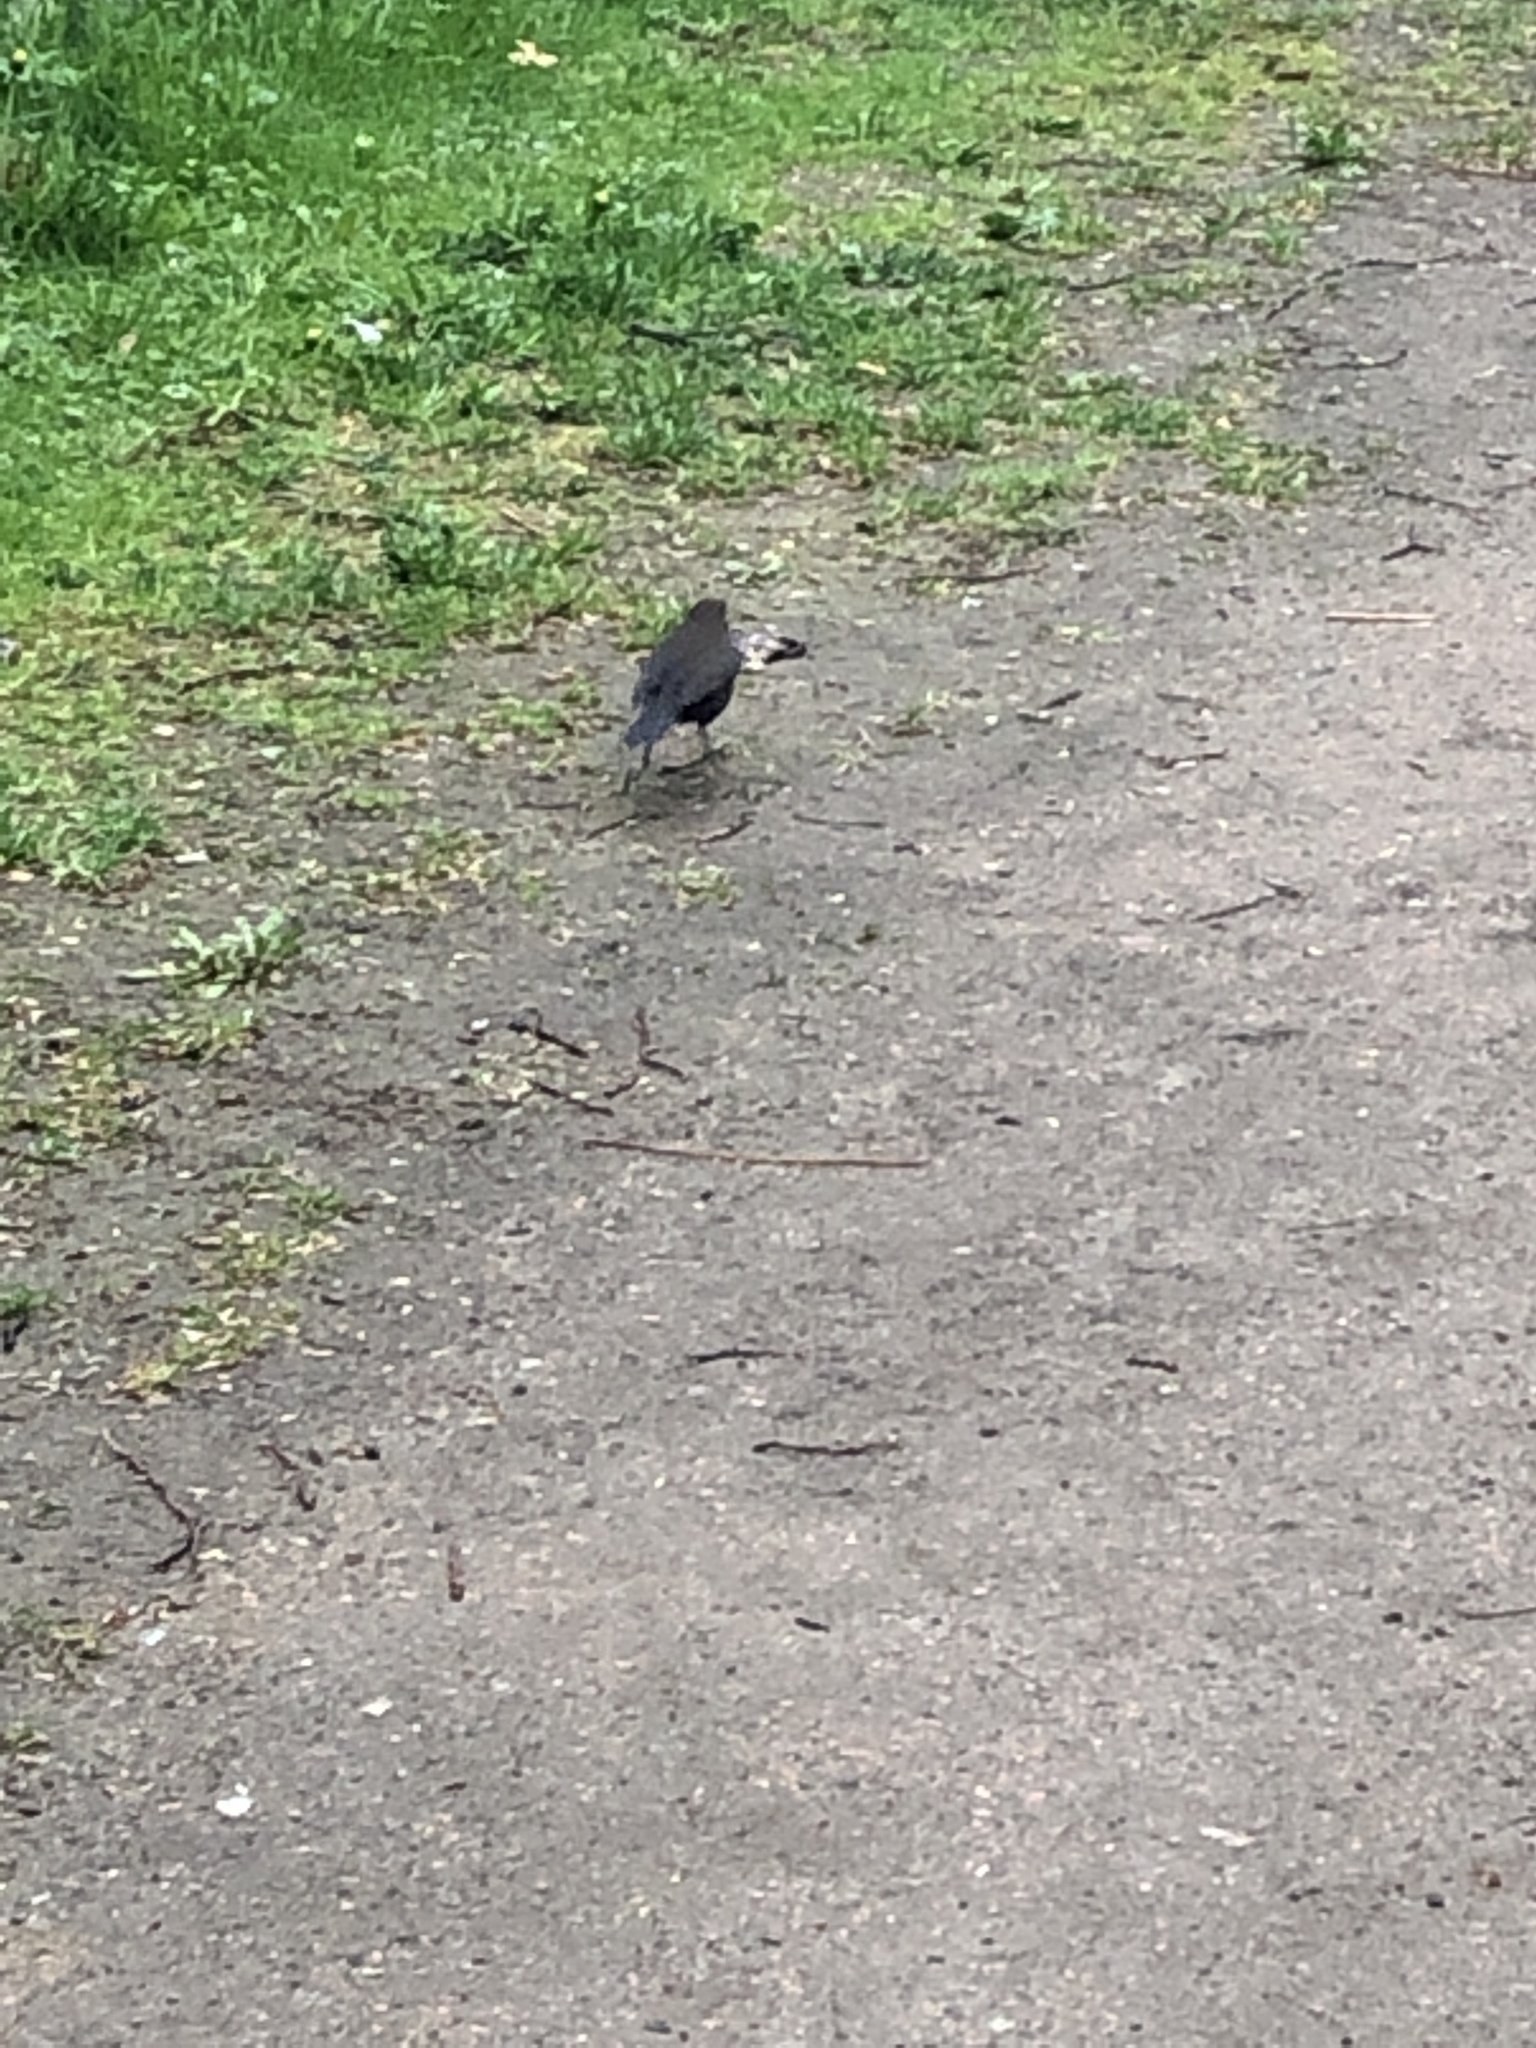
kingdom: Animalia
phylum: Chordata
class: Aves
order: Passeriformes
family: Turdidae
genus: Turdus
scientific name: Turdus merula
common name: Common blackbird
